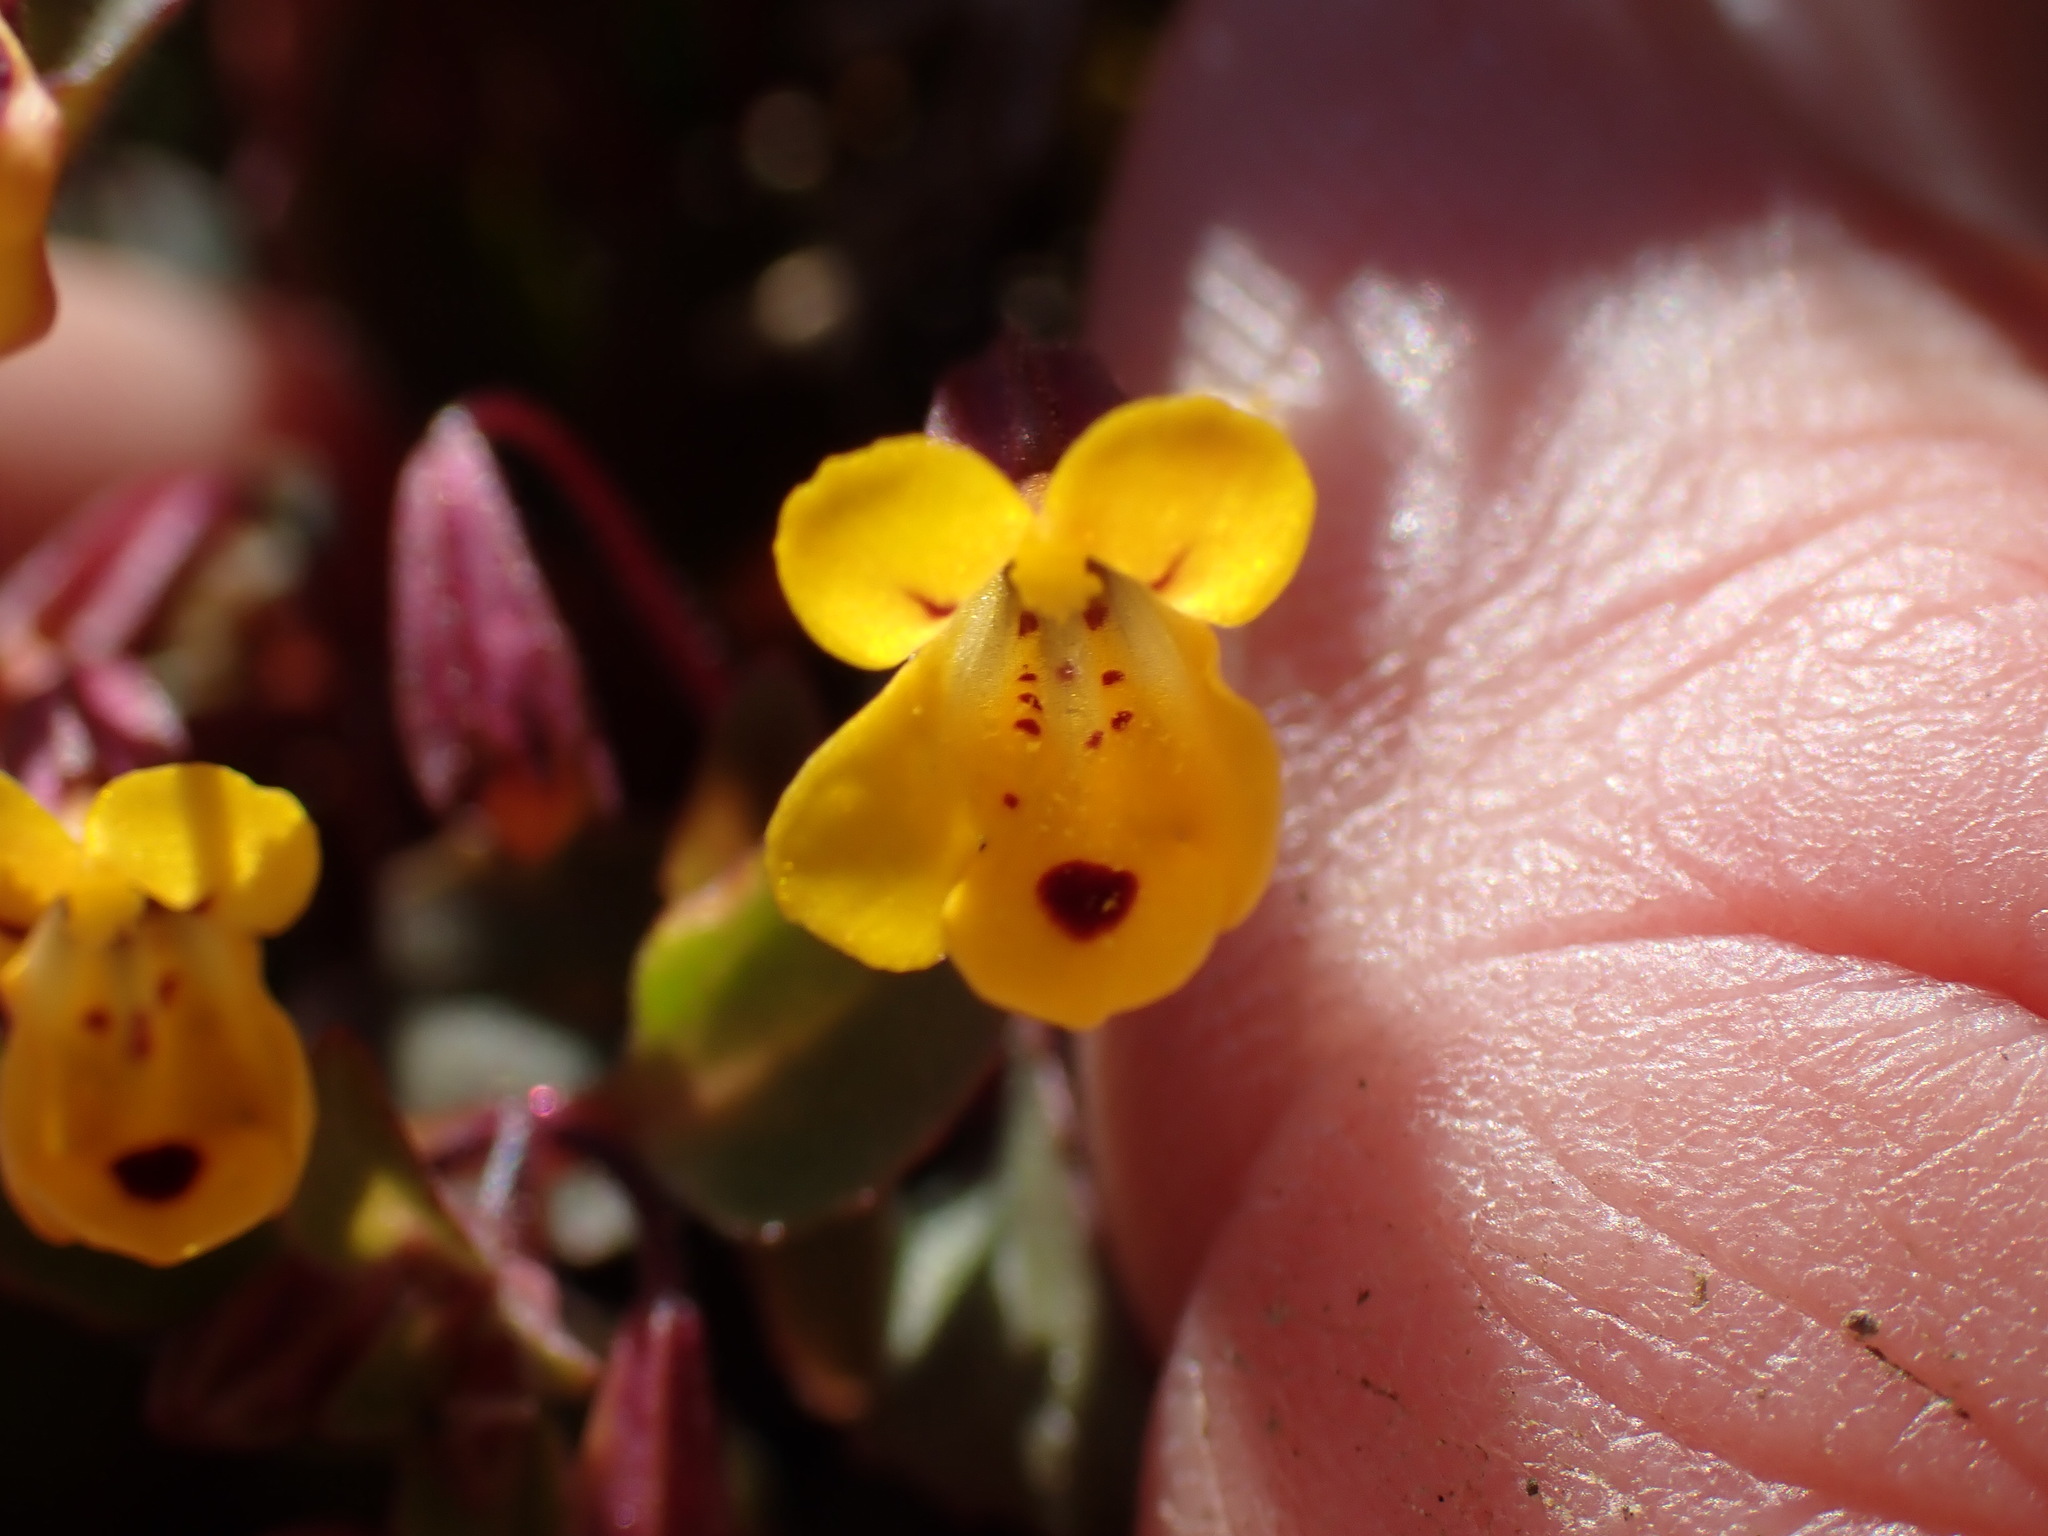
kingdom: Plantae
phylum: Tracheophyta
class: Magnoliopsida
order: Lamiales
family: Phrymaceae
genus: Erythranthe
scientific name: Erythranthe alsinoides
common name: Chickweed monkeyflower
